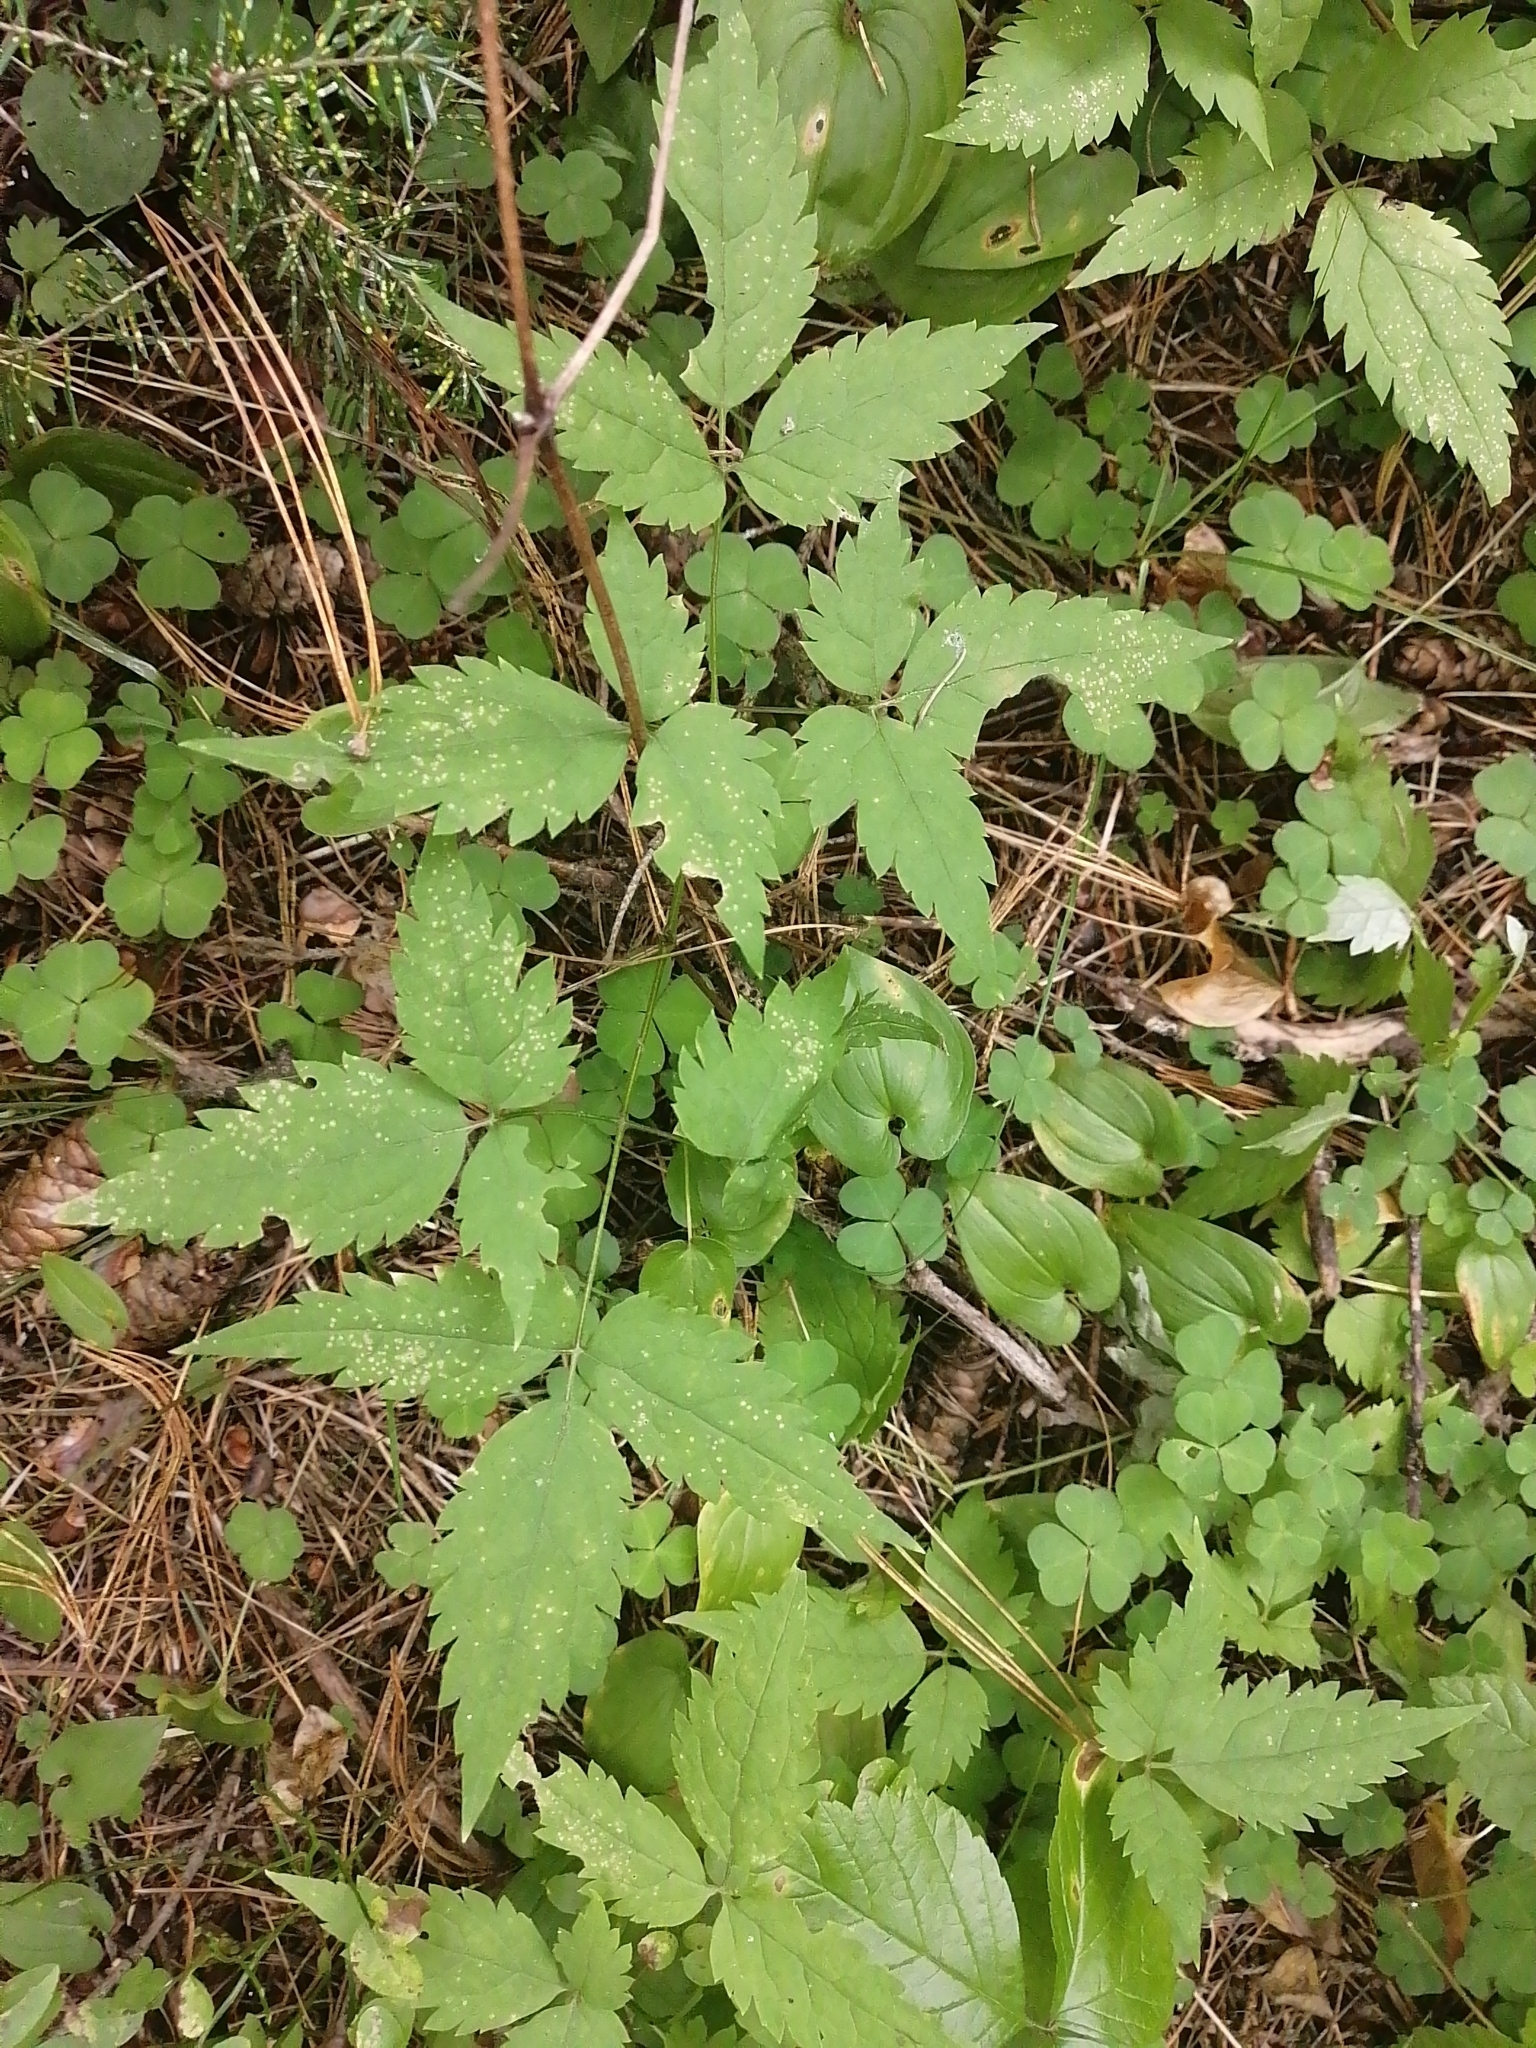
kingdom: Plantae
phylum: Tracheophyta
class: Magnoliopsida
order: Ranunculales
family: Ranunculaceae
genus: Clematis
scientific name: Clematis sibirica
